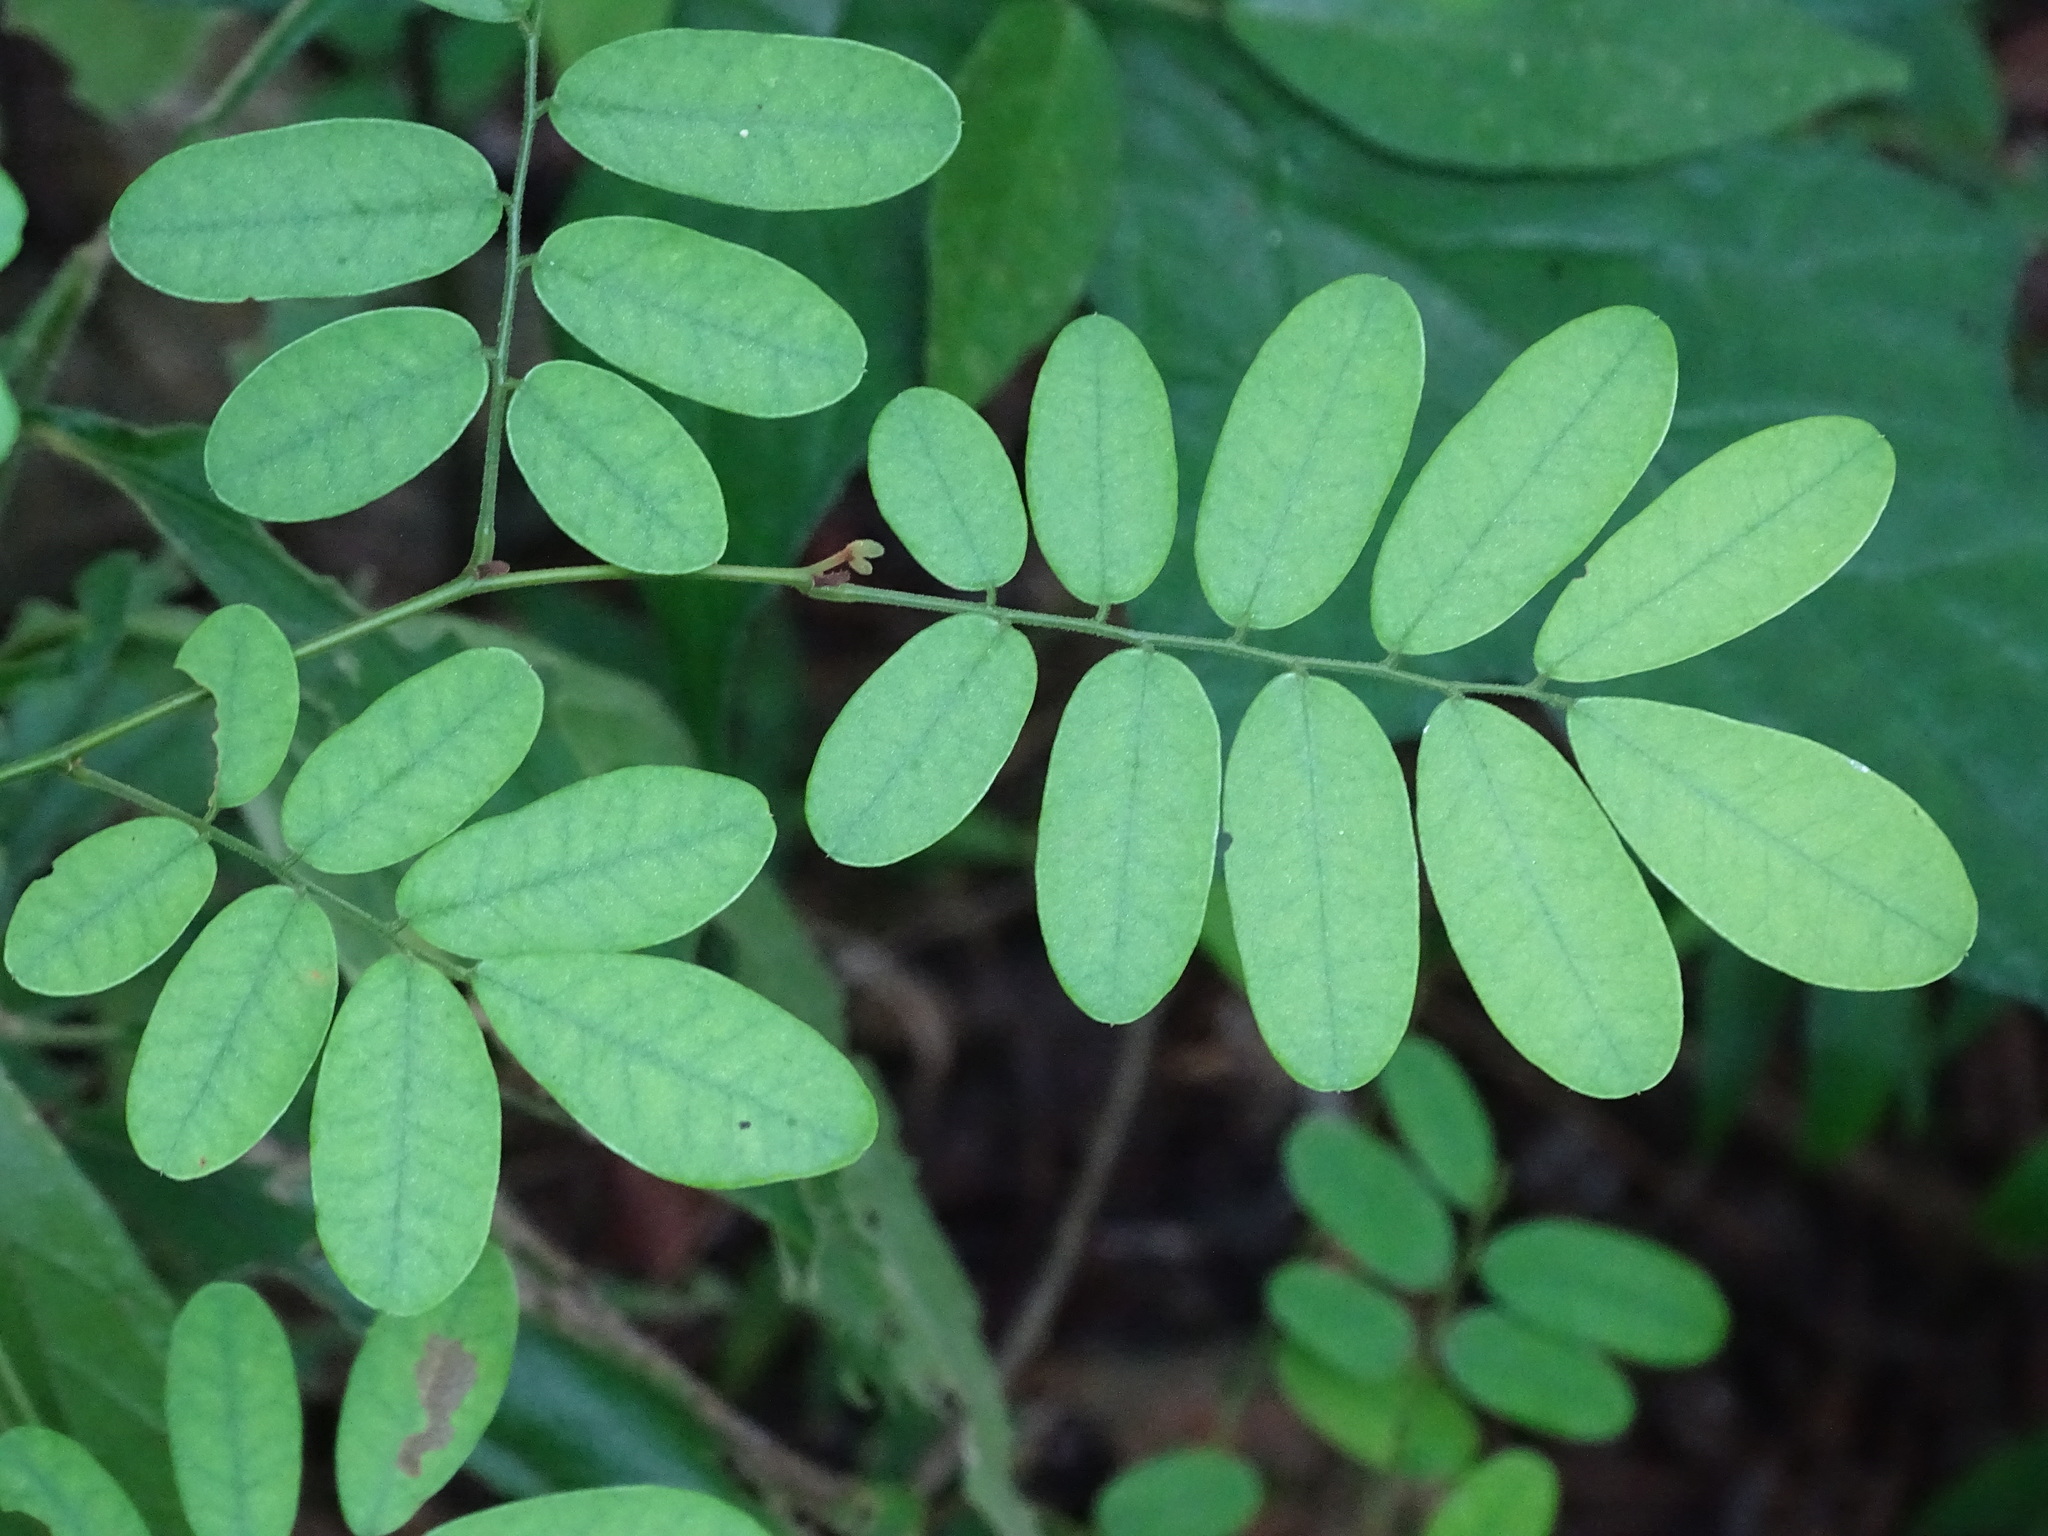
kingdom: Plantae
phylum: Tracheophyta
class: Magnoliopsida
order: Fabales
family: Fabaceae
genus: Machaerium
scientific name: Machaerium riparium
